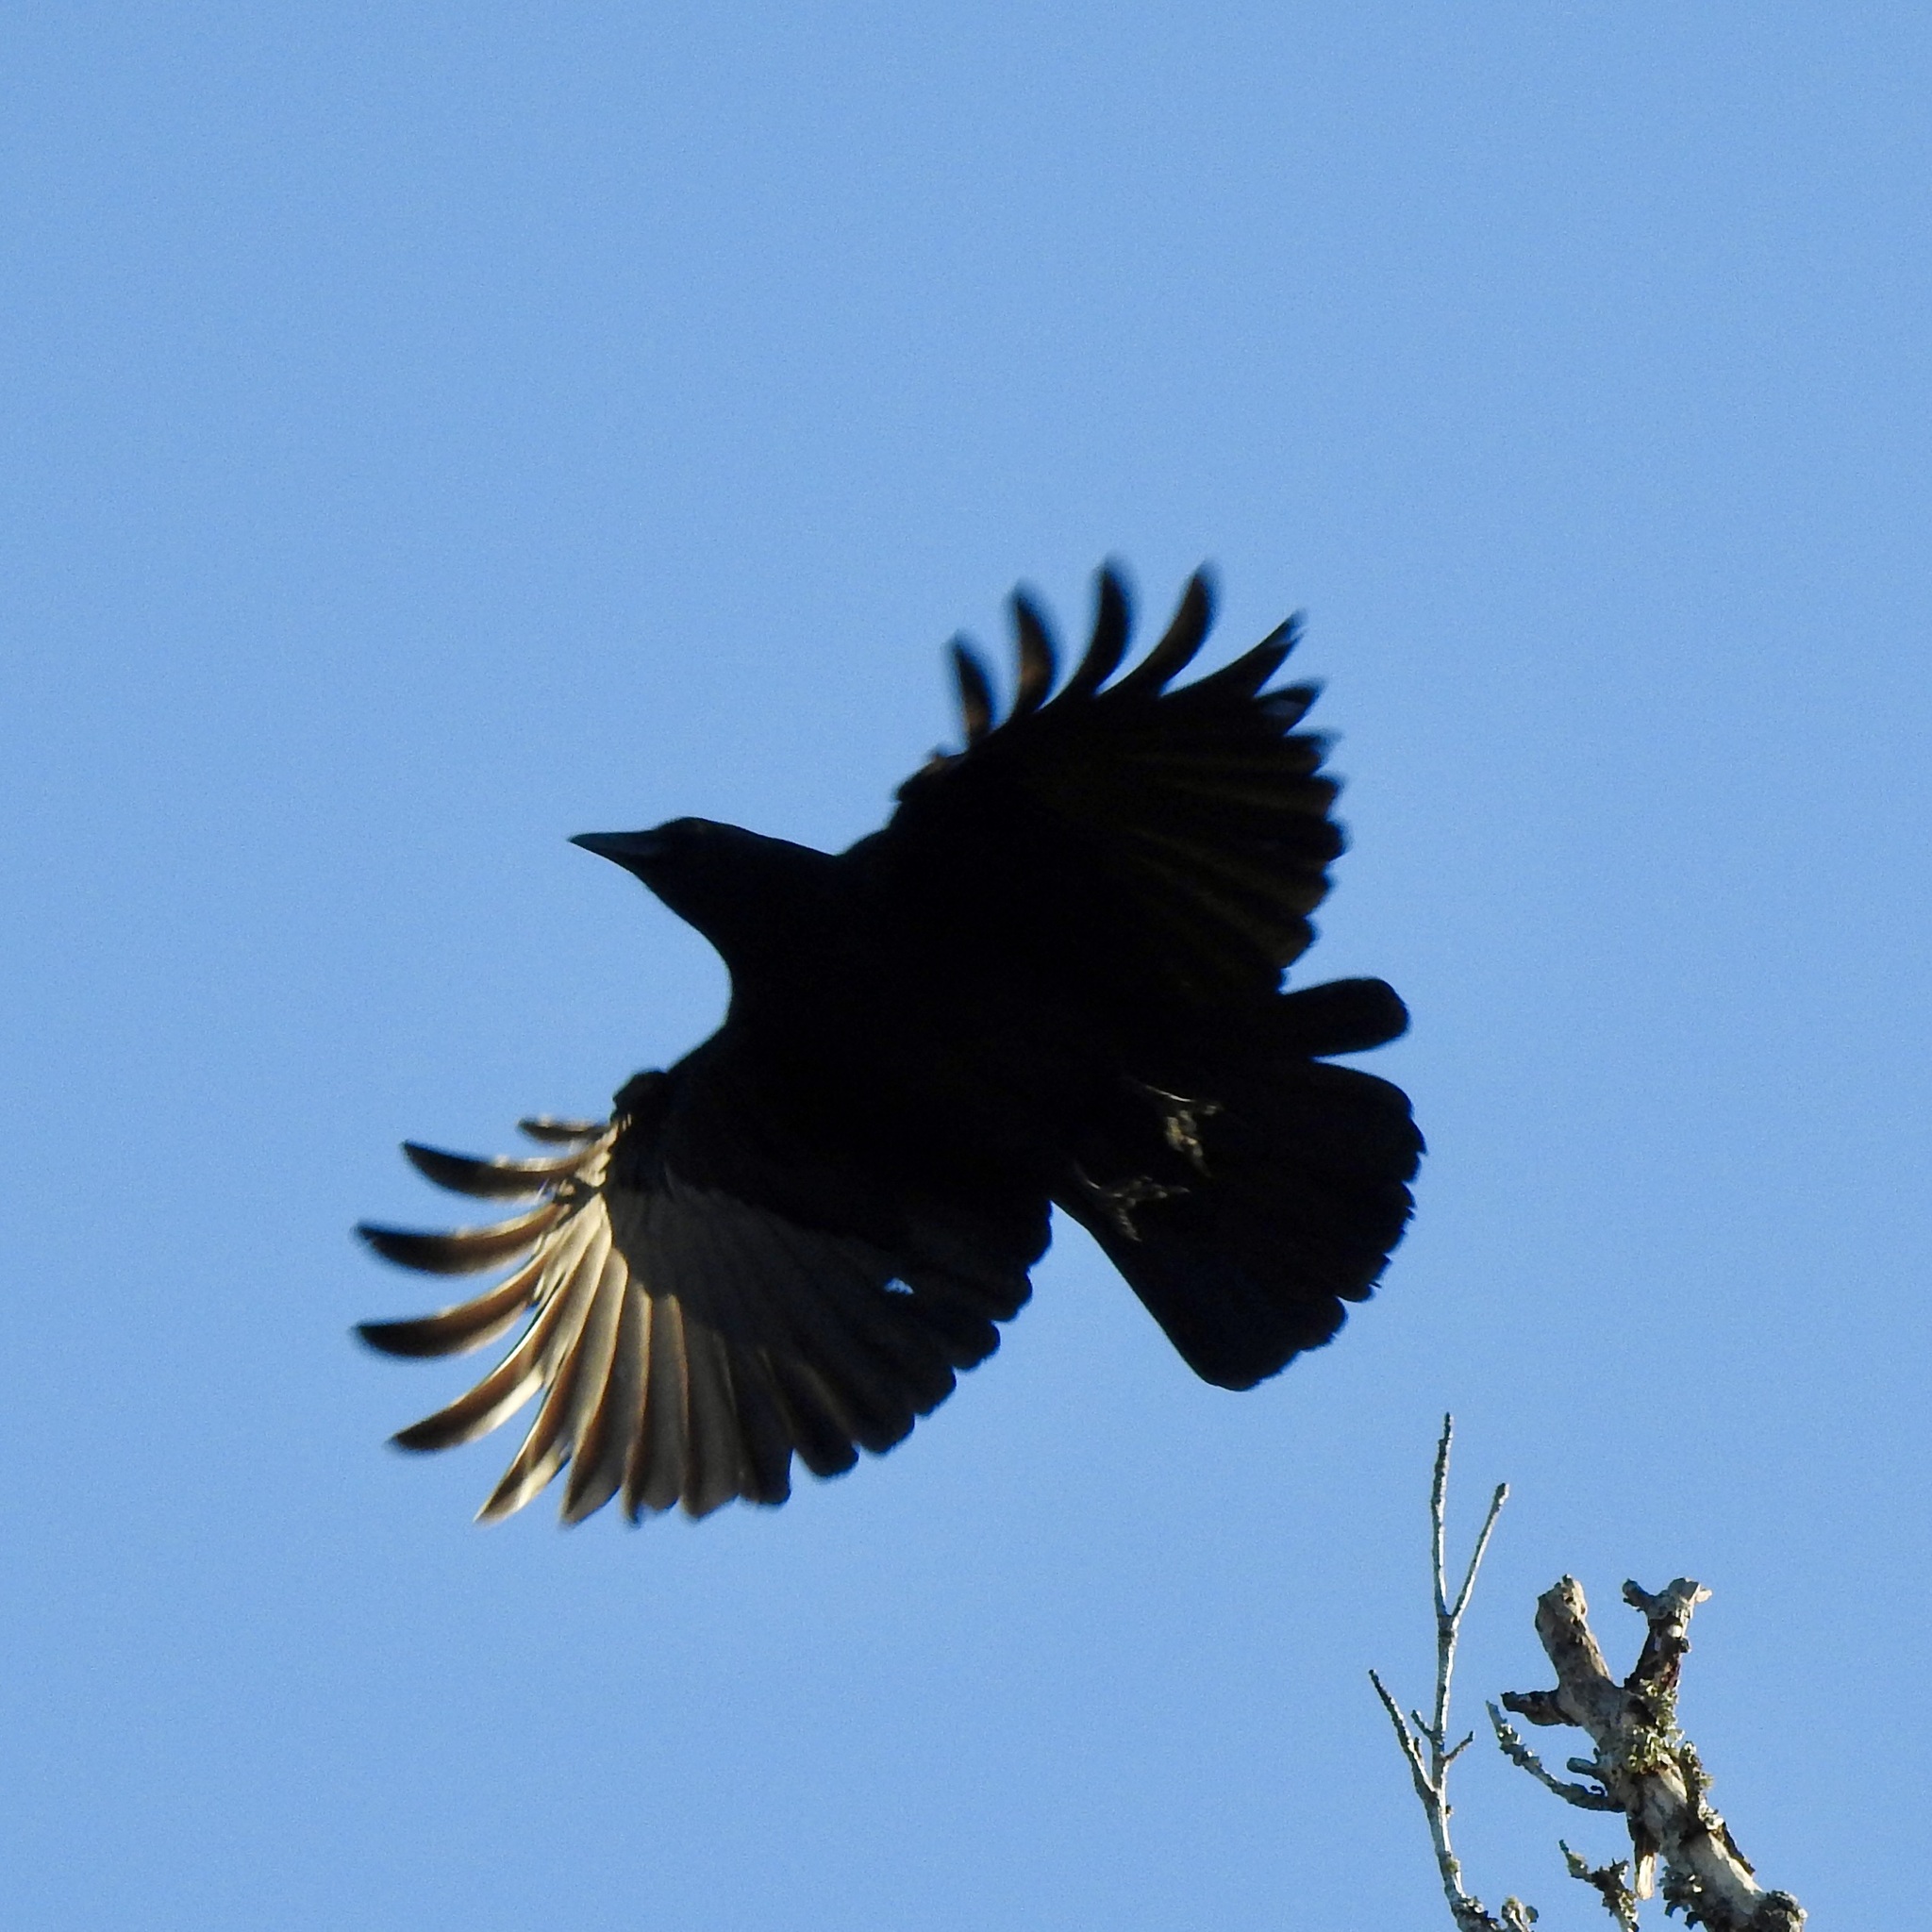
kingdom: Animalia
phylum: Chordata
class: Aves
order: Passeriformes
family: Corvidae
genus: Corvus
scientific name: Corvus brachyrhynchos
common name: American crow
